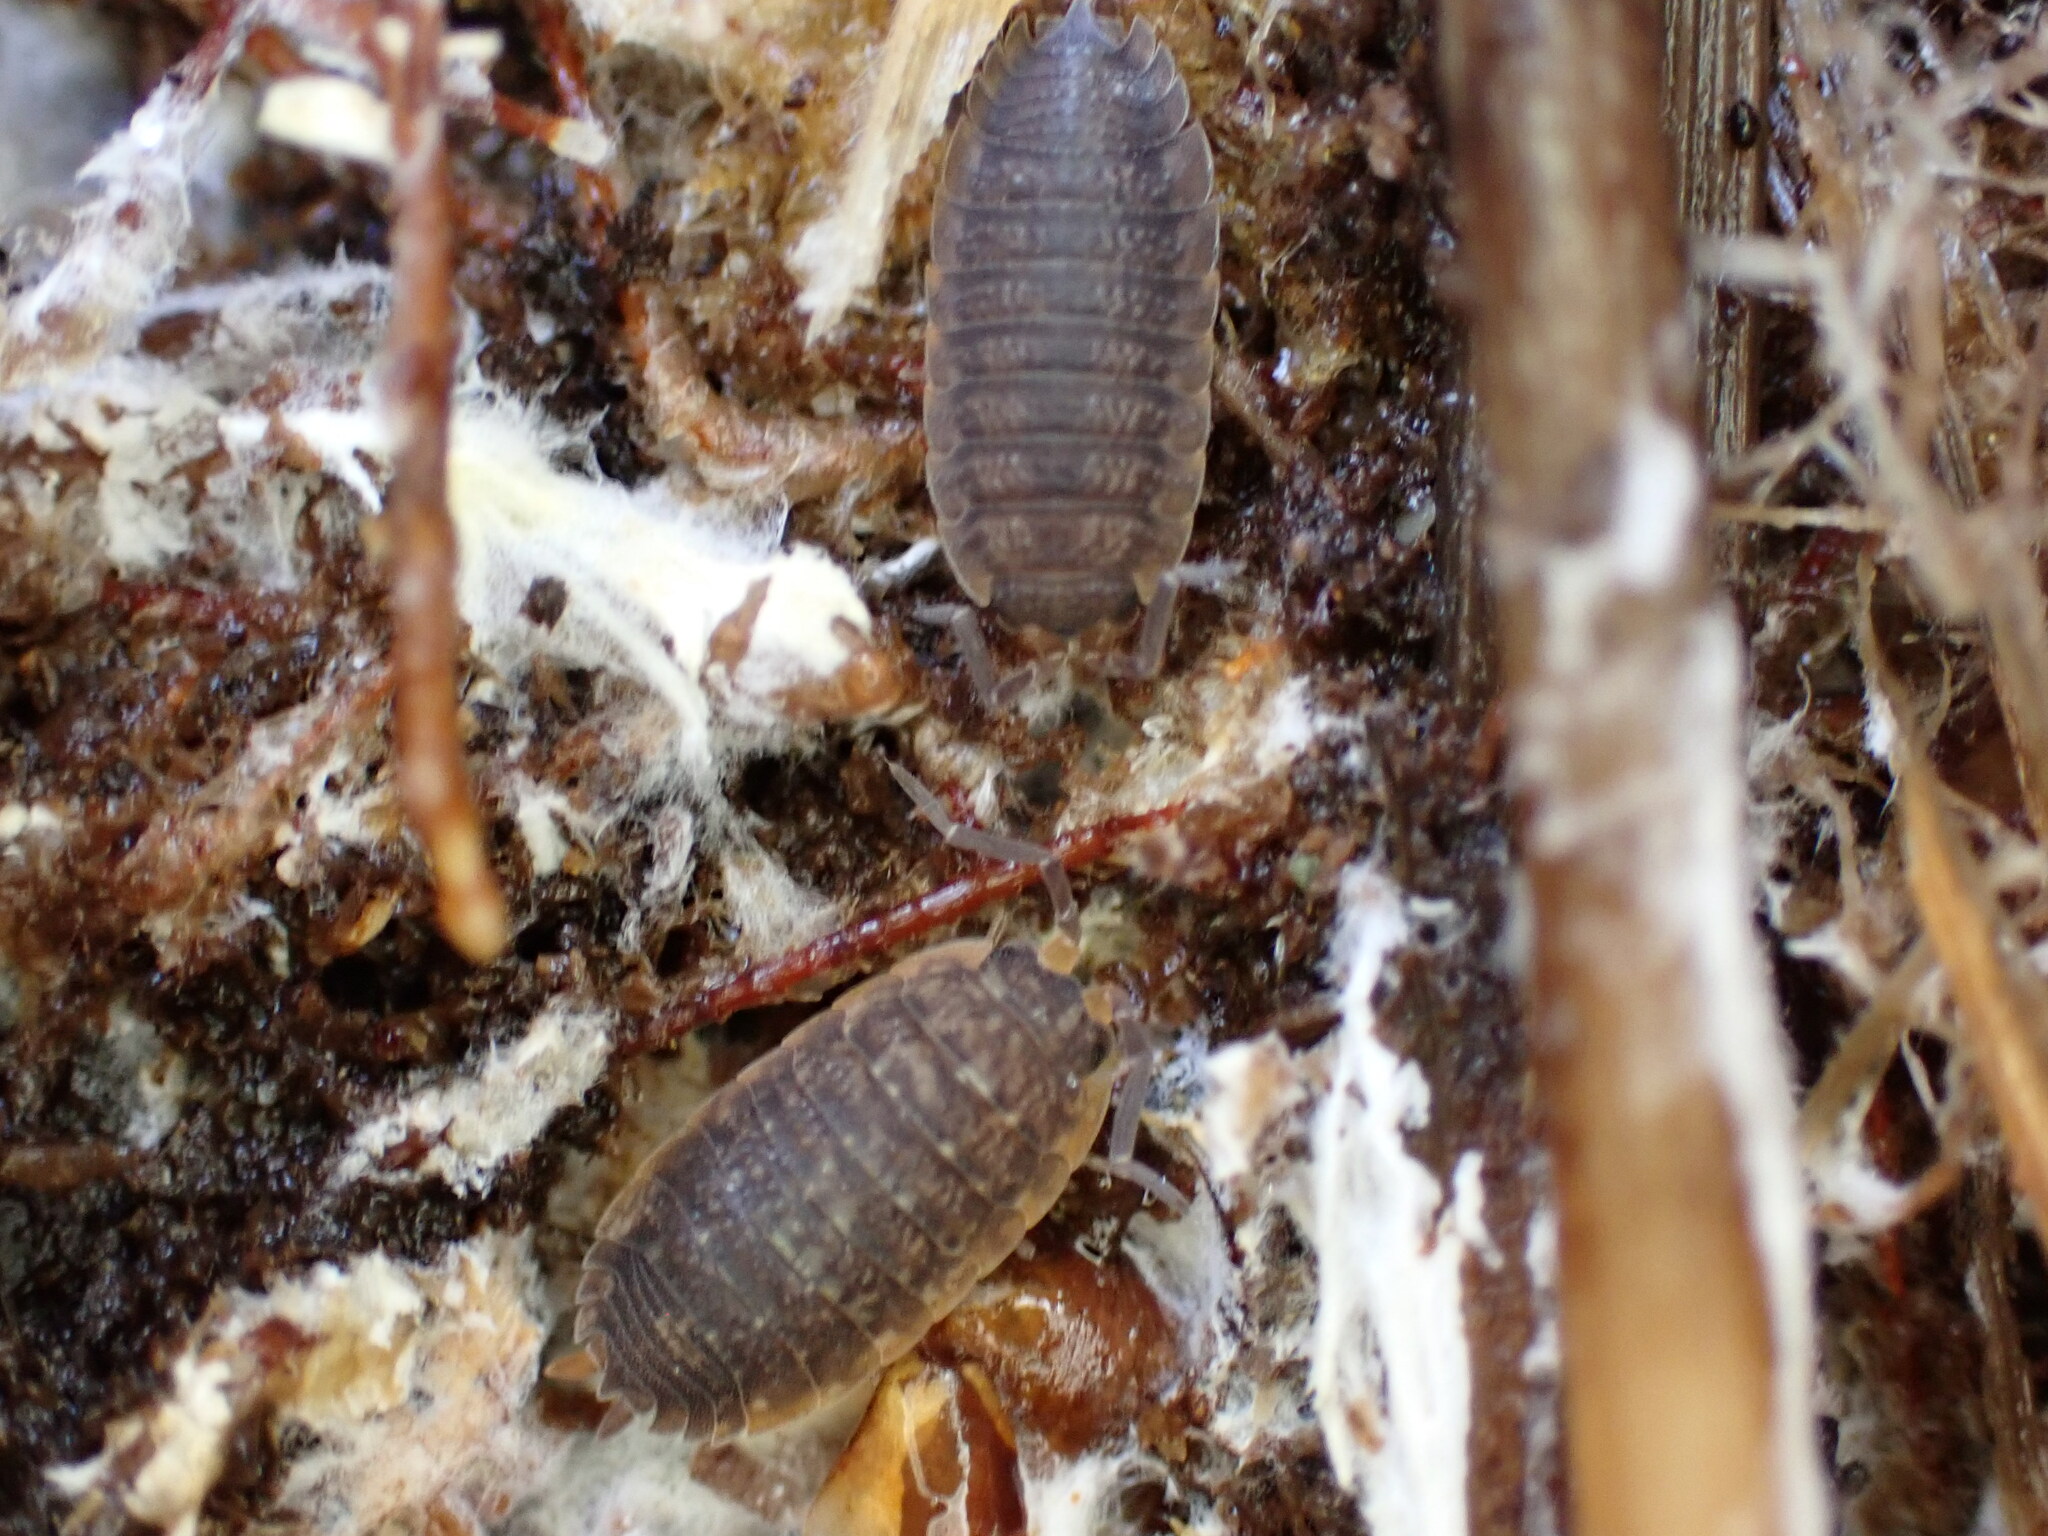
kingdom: Animalia
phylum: Arthropoda
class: Malacostraca
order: Isopoda
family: Porcellionidae
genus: Porcellio
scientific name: Porcellio scaber
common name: Common rough woodlouse
